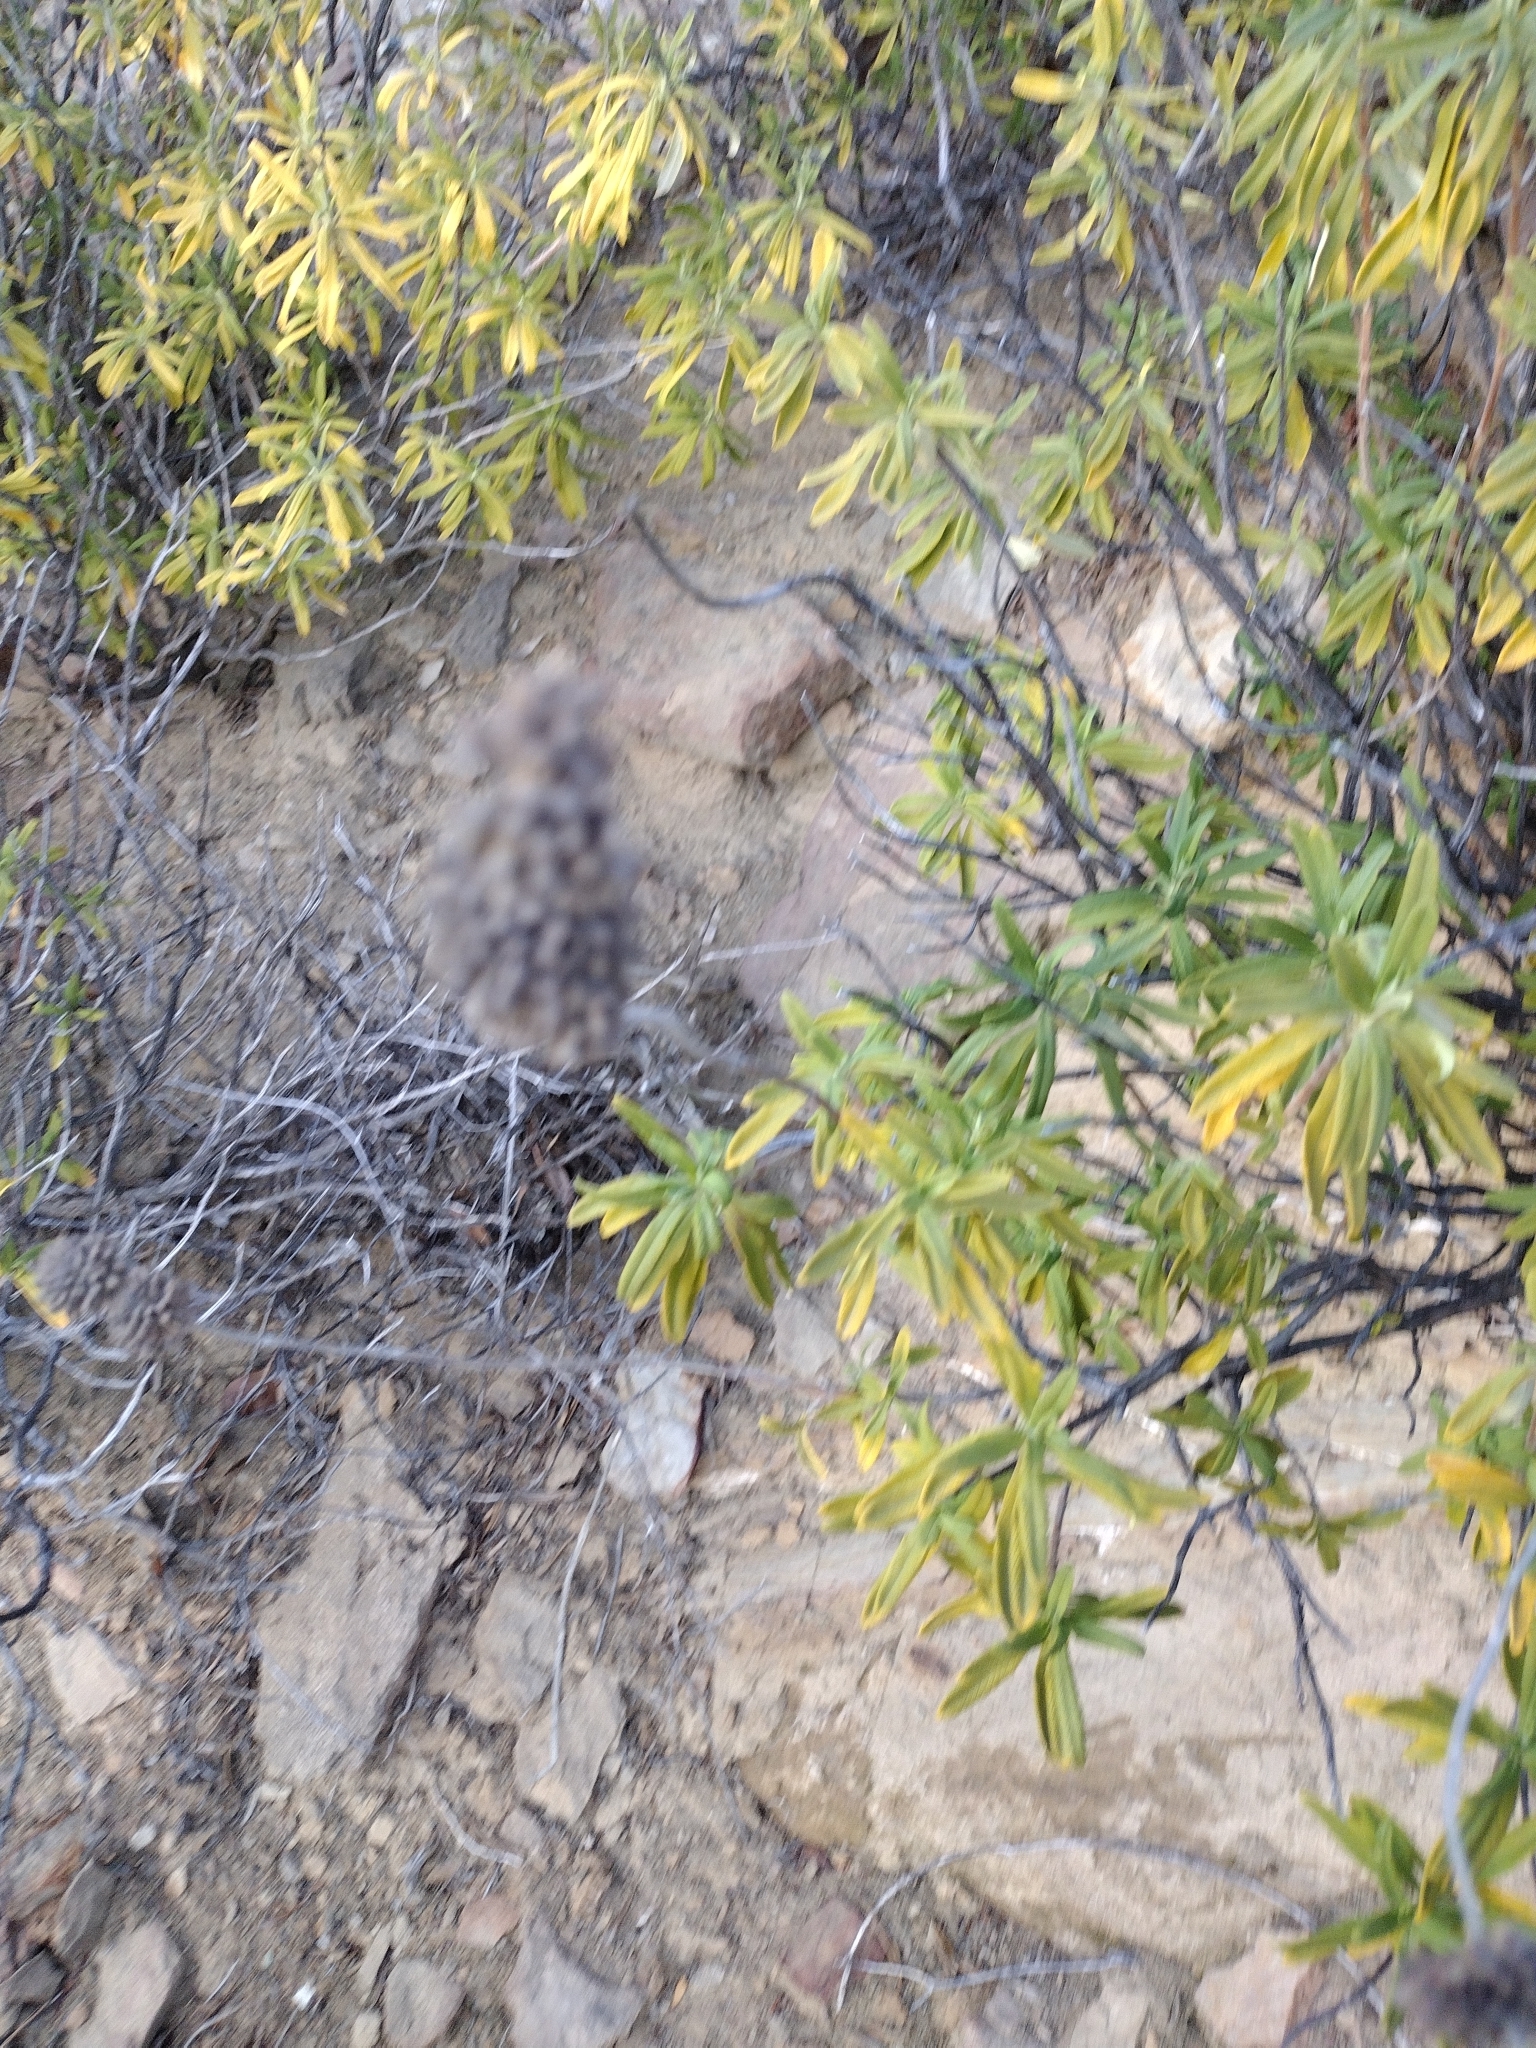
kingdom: Plantae
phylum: Tracheophyta
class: Magnoliopsida
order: Lamiales
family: Lamiaceae
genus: Salvia
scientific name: Salvia mellifera
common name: Black sage
